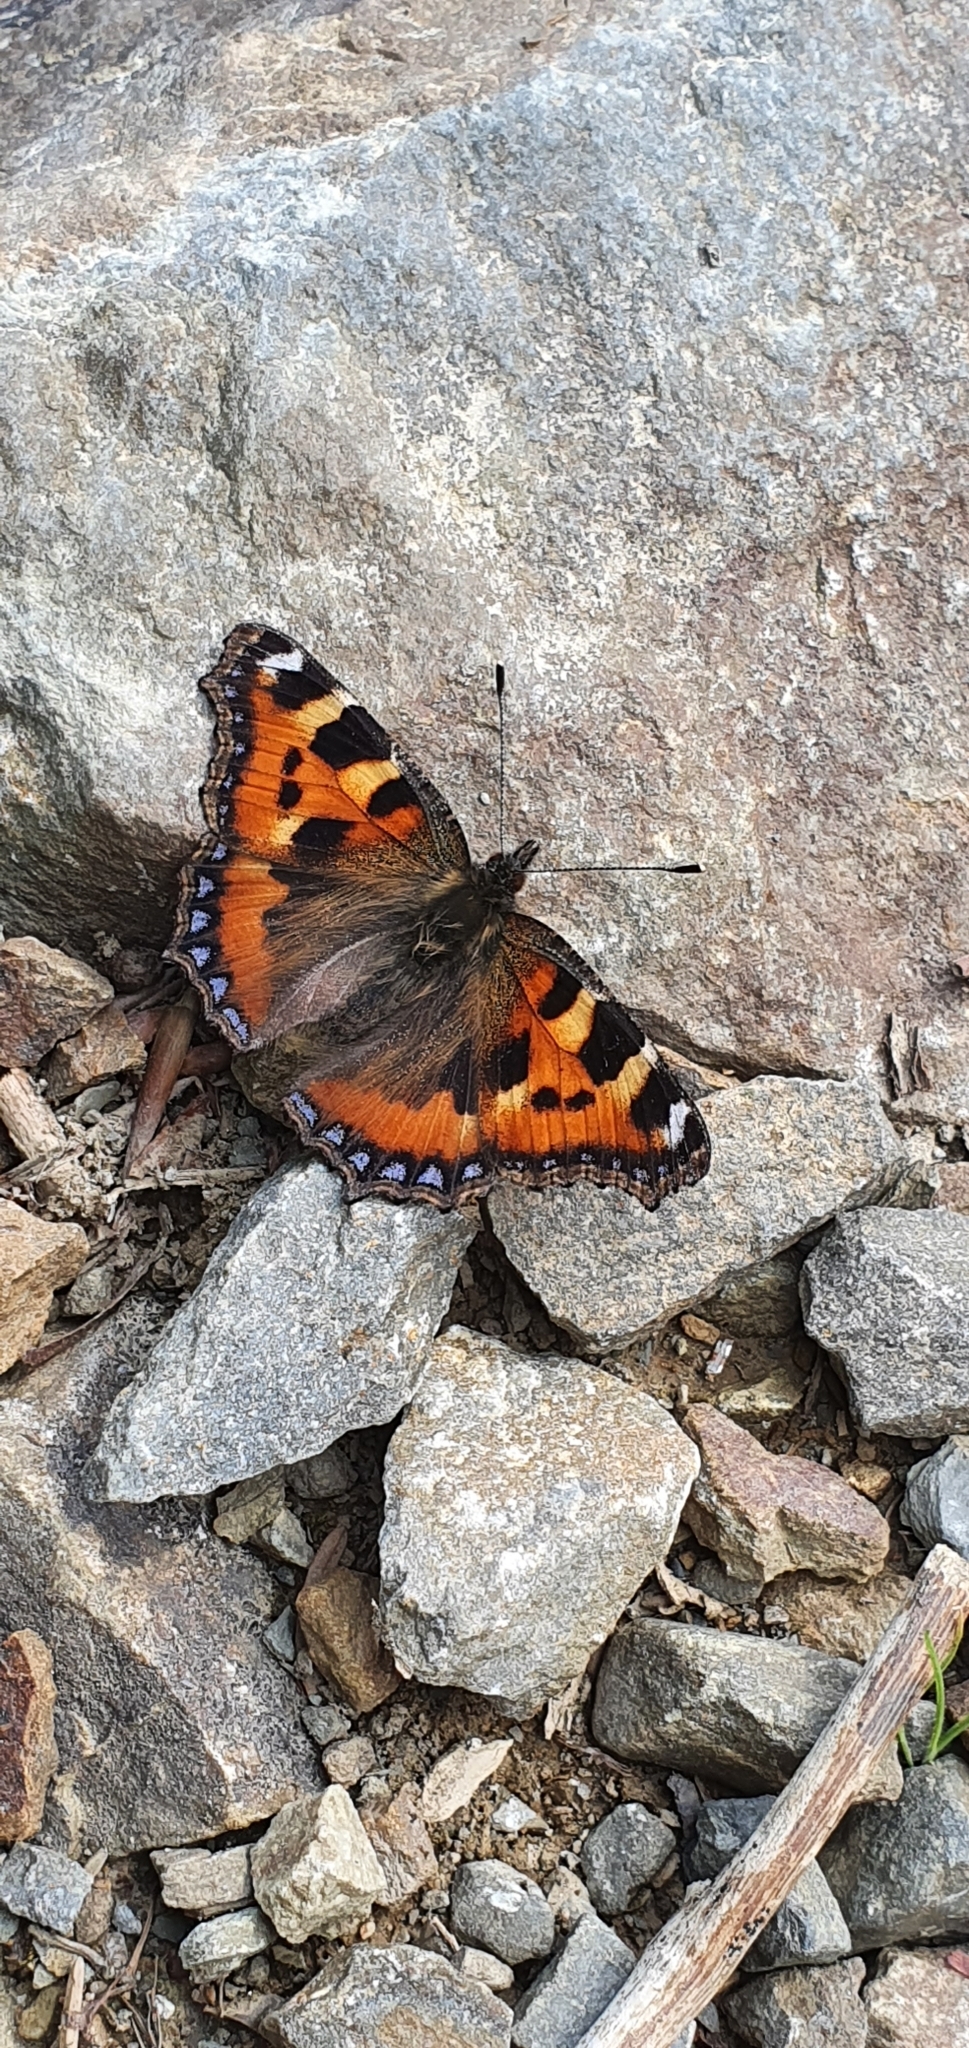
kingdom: Animalia
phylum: Arthropoda
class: Insecta
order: Lepidoptera
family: Nymphalidae
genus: Aglais
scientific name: Aglais urticae
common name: Small tortoiseshell
